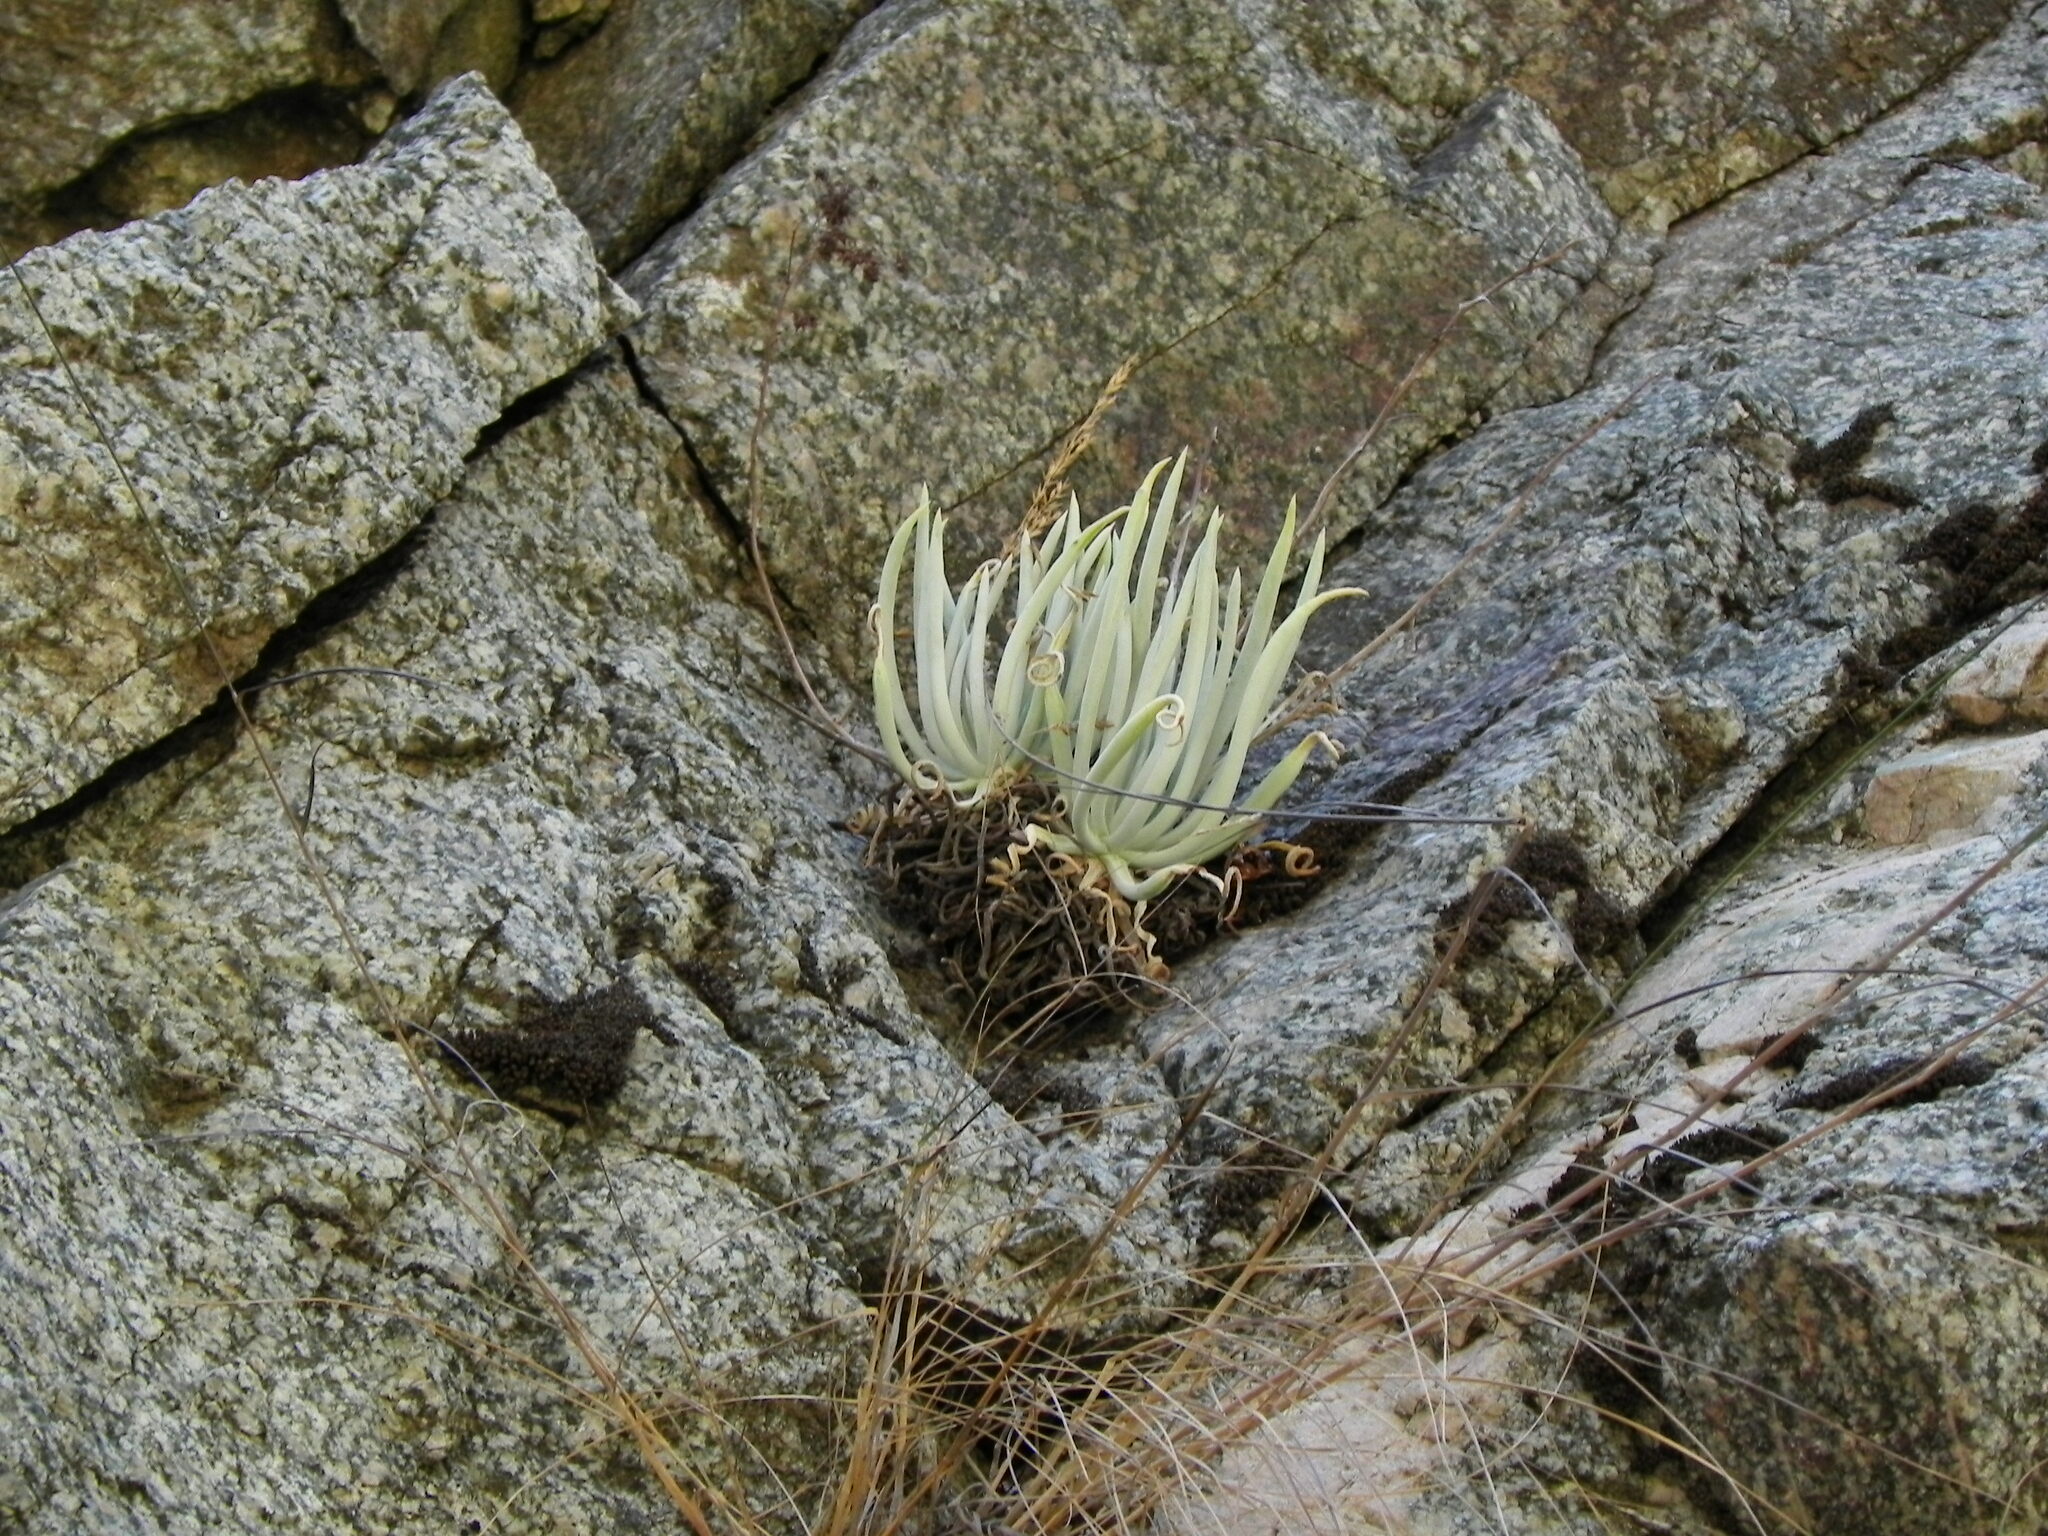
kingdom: Plantae
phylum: Tracheophyta
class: Magnoliopsida
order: Saxifragales
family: Crassulaceae
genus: Dudleya
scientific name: Dudleya densiflora
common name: San gabriel mountains dudleya
